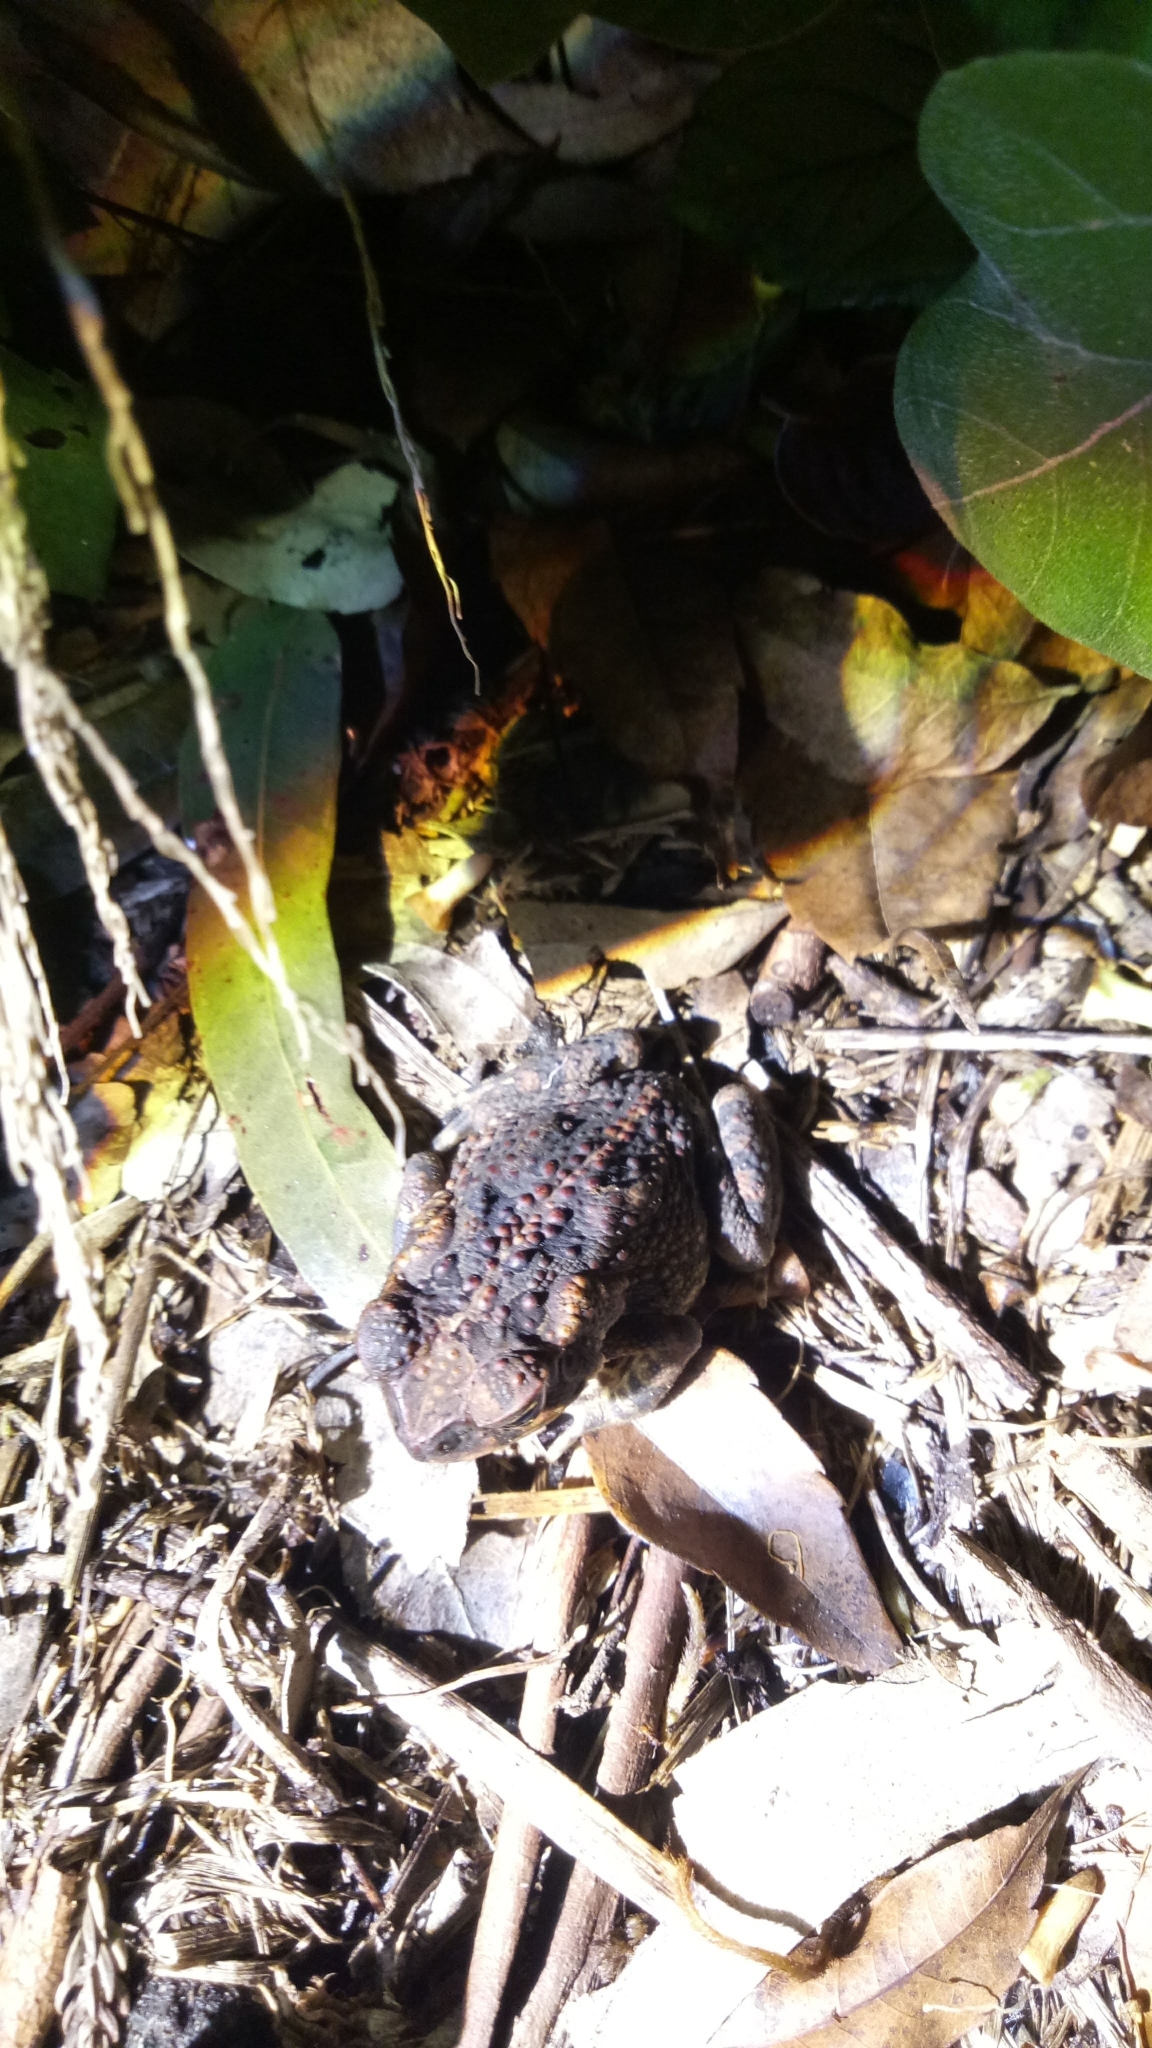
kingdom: Animalia
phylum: Chordata
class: Amphibia
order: Anura
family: Bufonidae
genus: Rhinella
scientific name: Rhinella marina
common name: Cane toad
